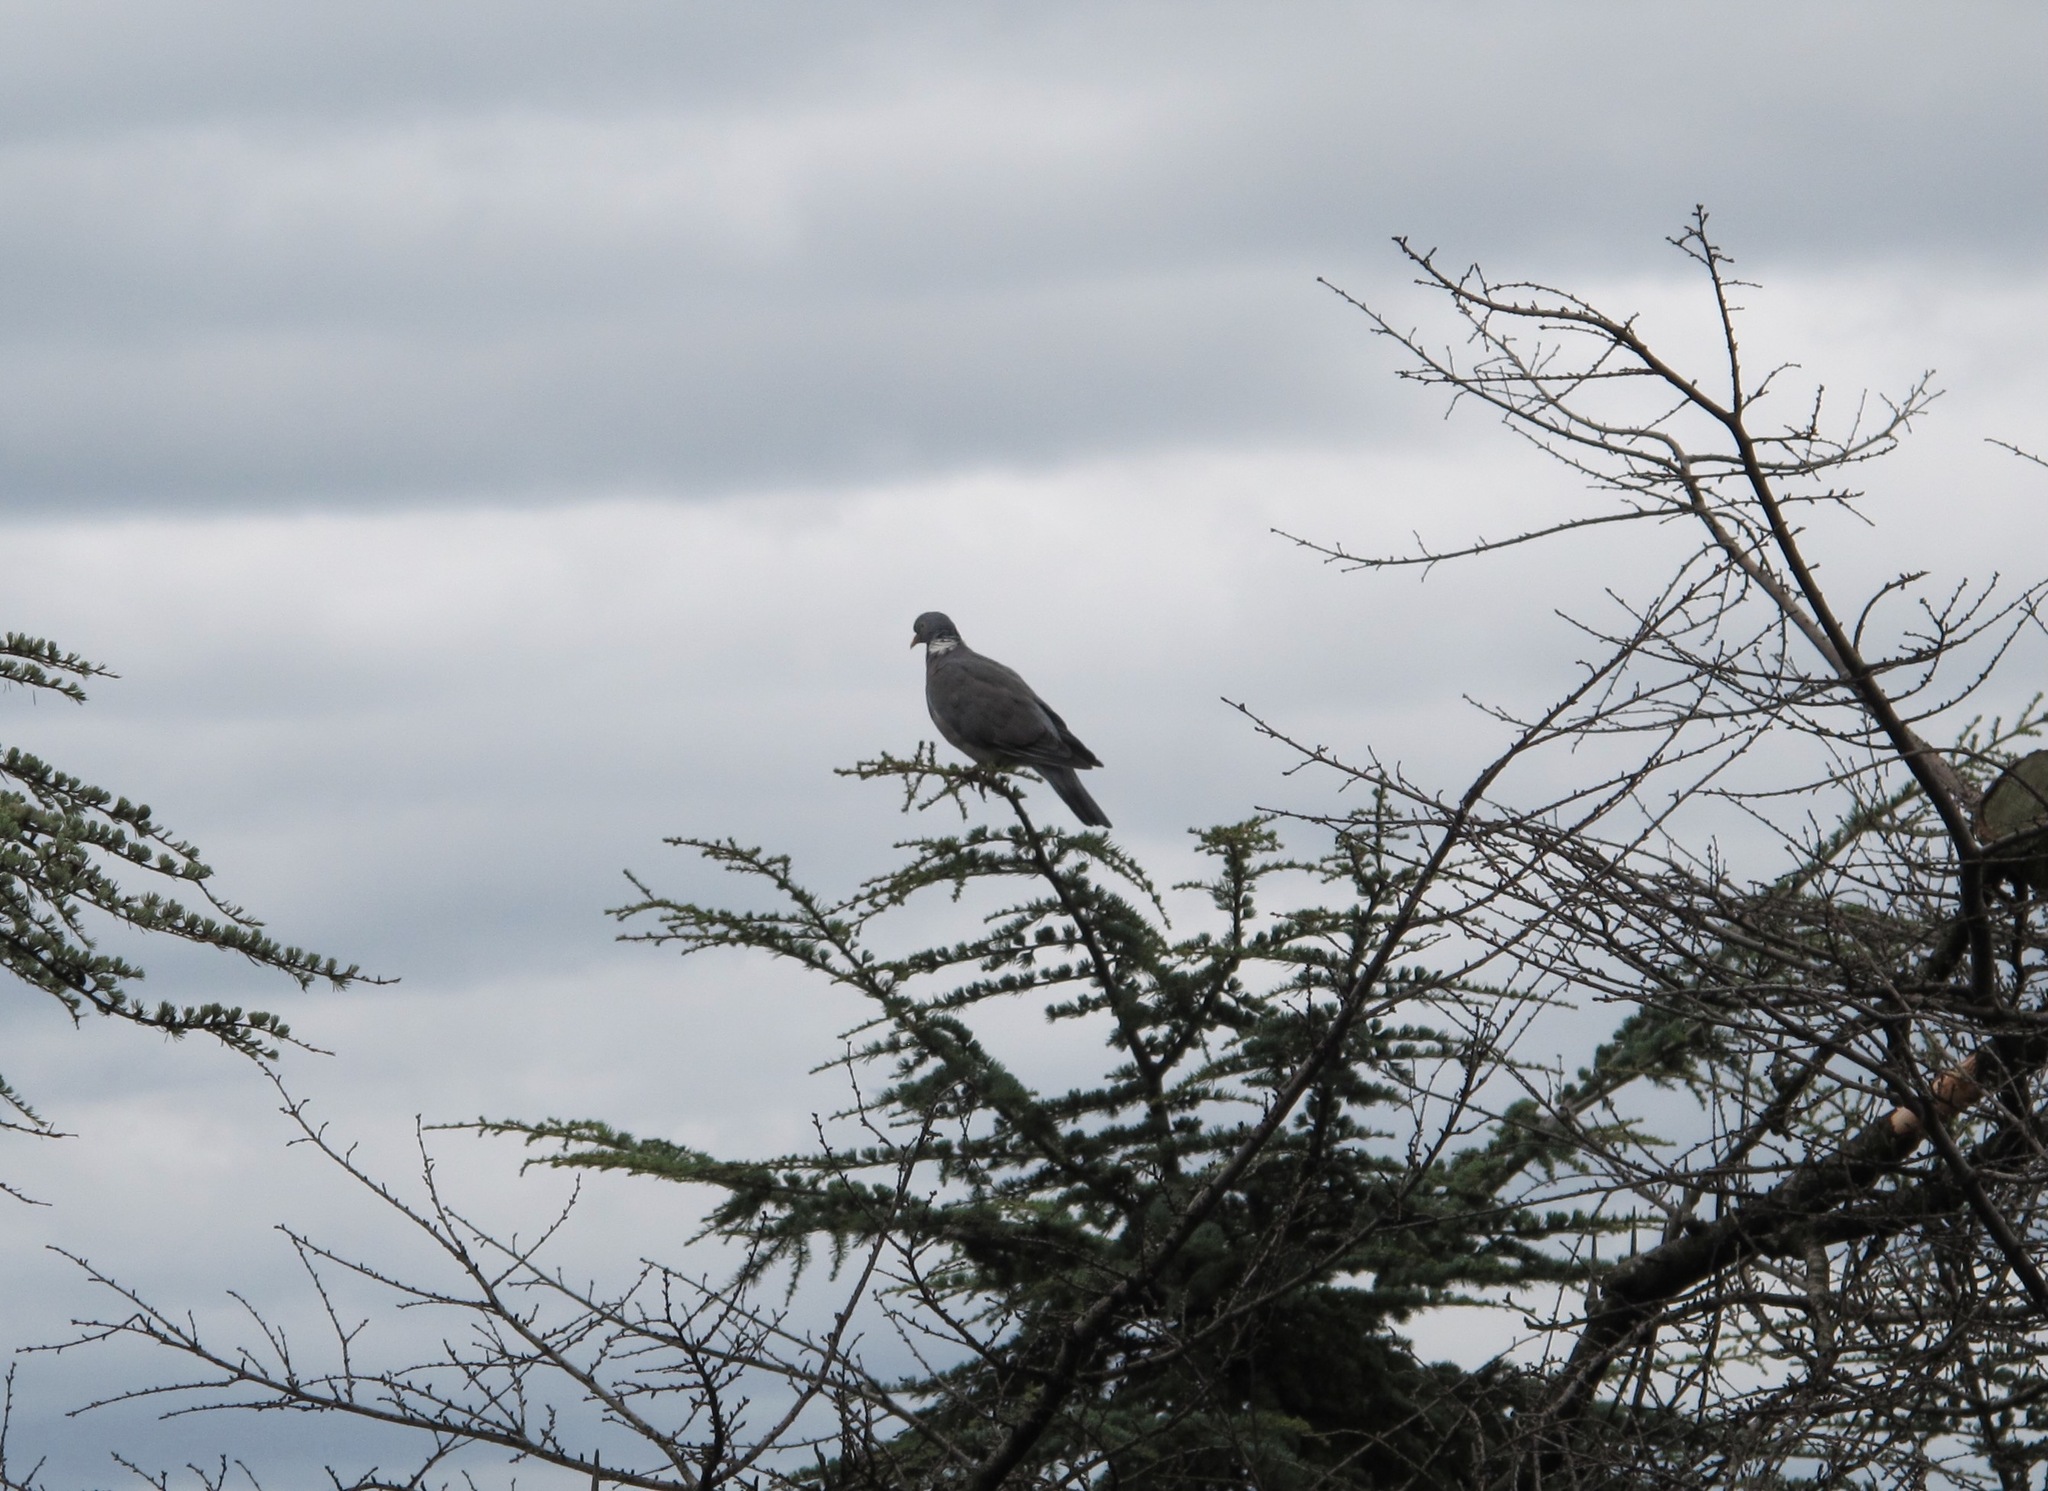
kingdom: Animalia
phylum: Chordata
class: Aves
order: Columbiformes
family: Columbidae
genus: Columba
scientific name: Columba palumbus
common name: Common wood pigeon
